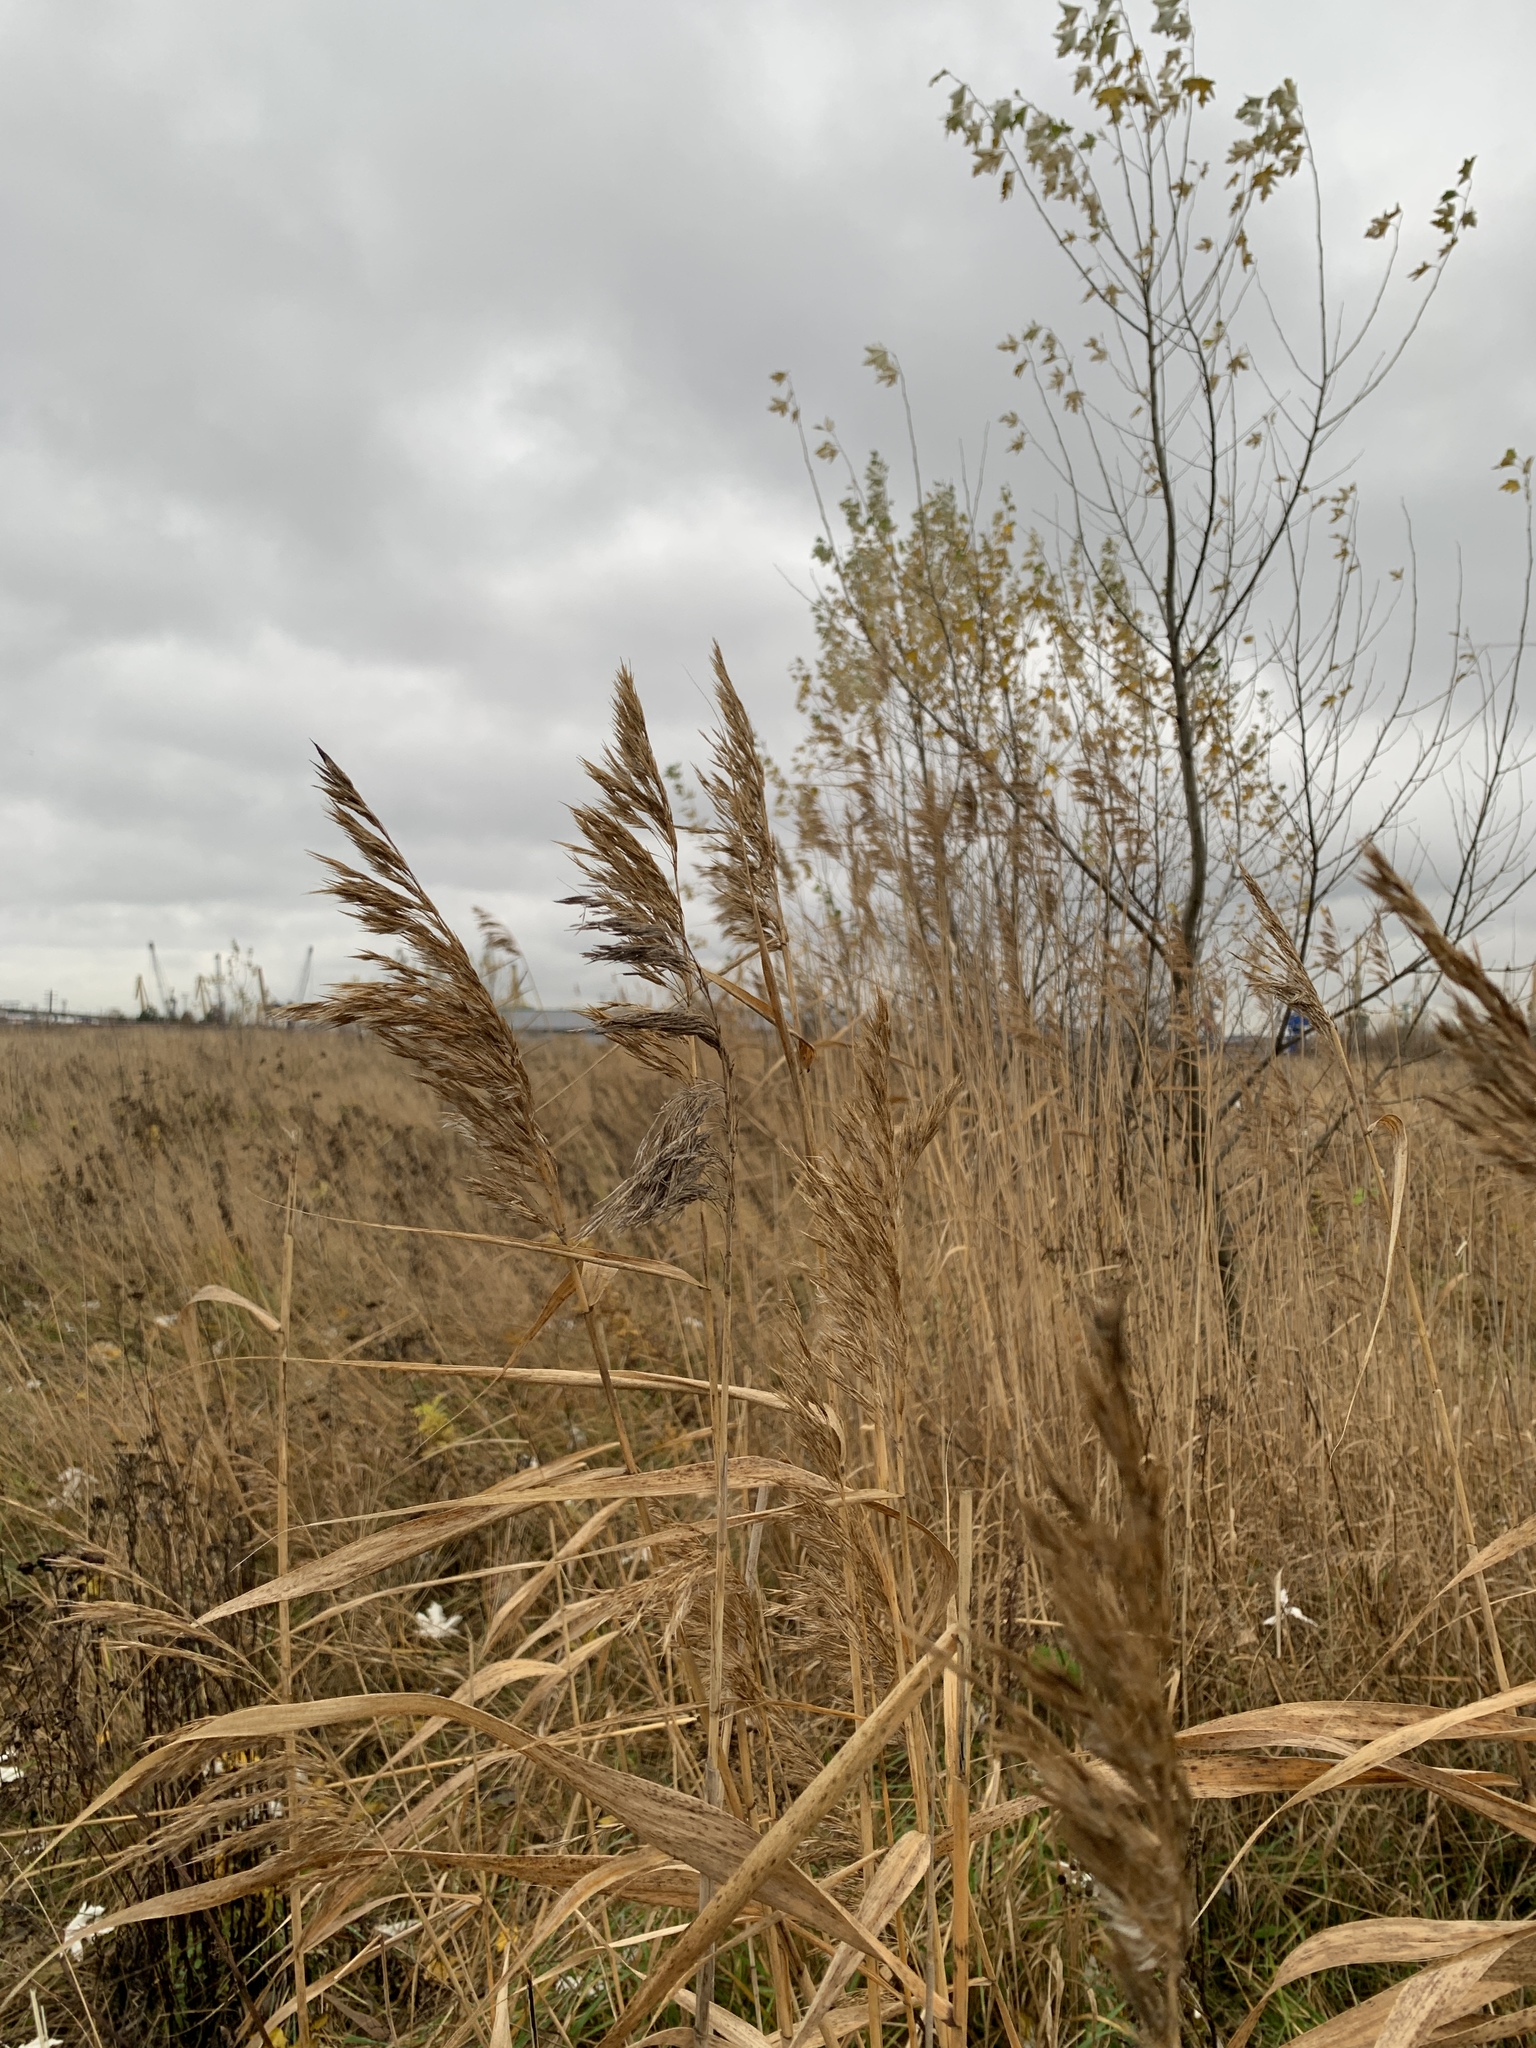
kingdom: Plantae
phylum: Tracheophyta
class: Liliopsida
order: Poales
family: Poaceae
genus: Phragmites
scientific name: Phragmites australis
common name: Common reed
